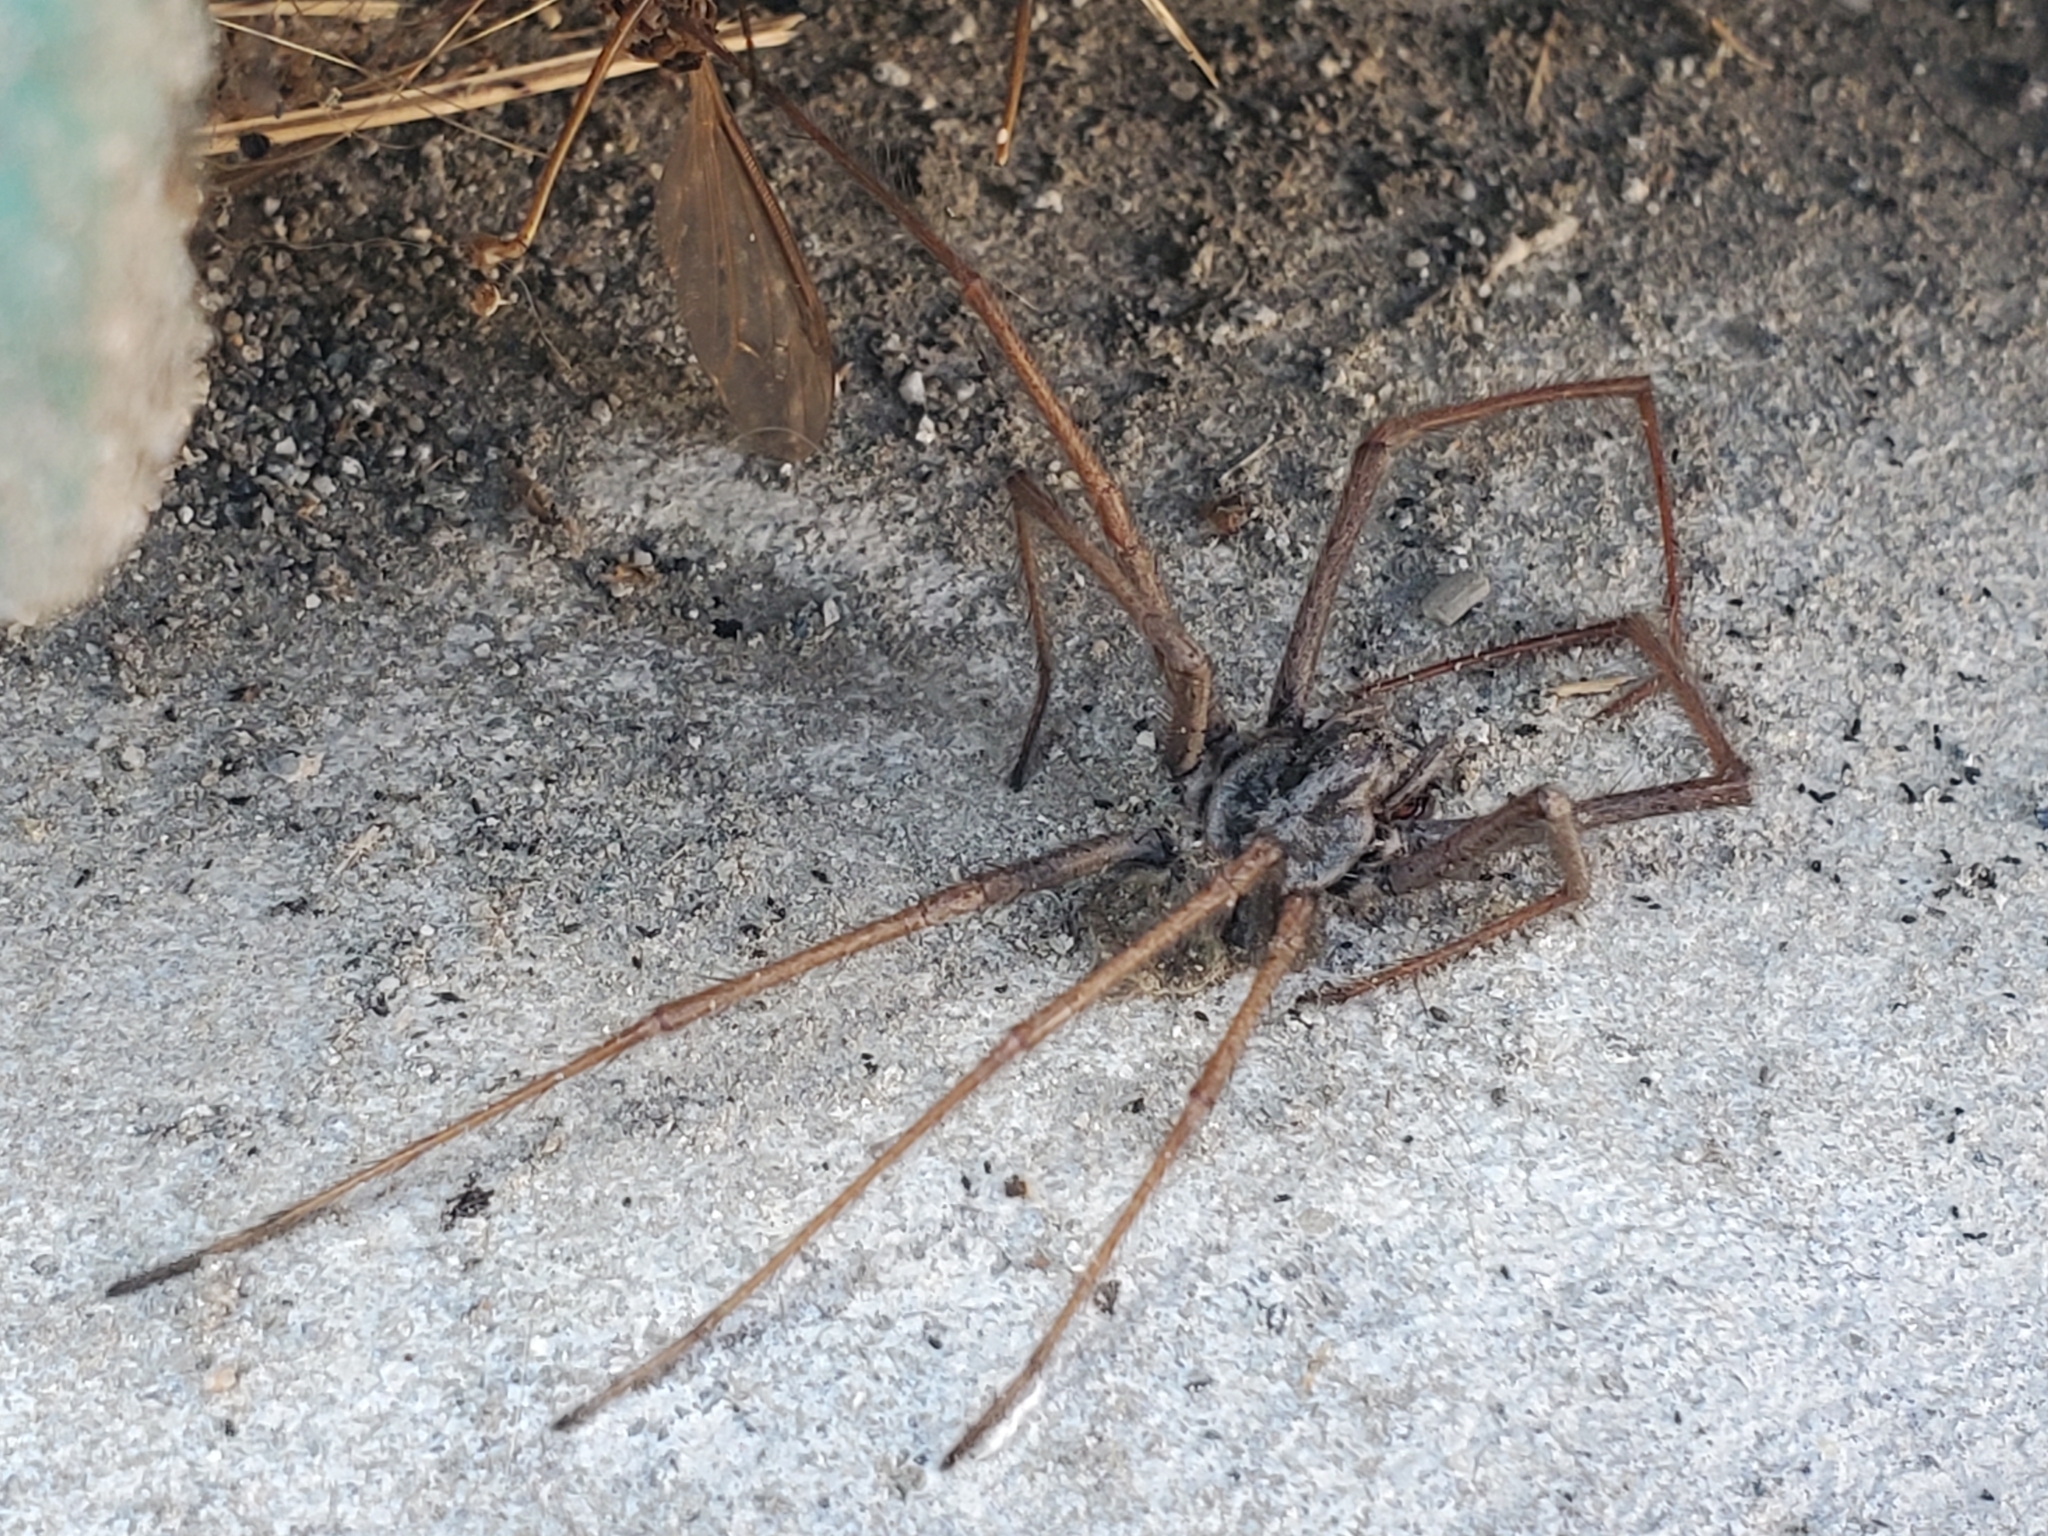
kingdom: Animalia
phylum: Arthropoda
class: Arachnida
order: Araneae
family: Agelenidae
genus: Eratigena
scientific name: Eratigena duellica
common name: Giant house spider
